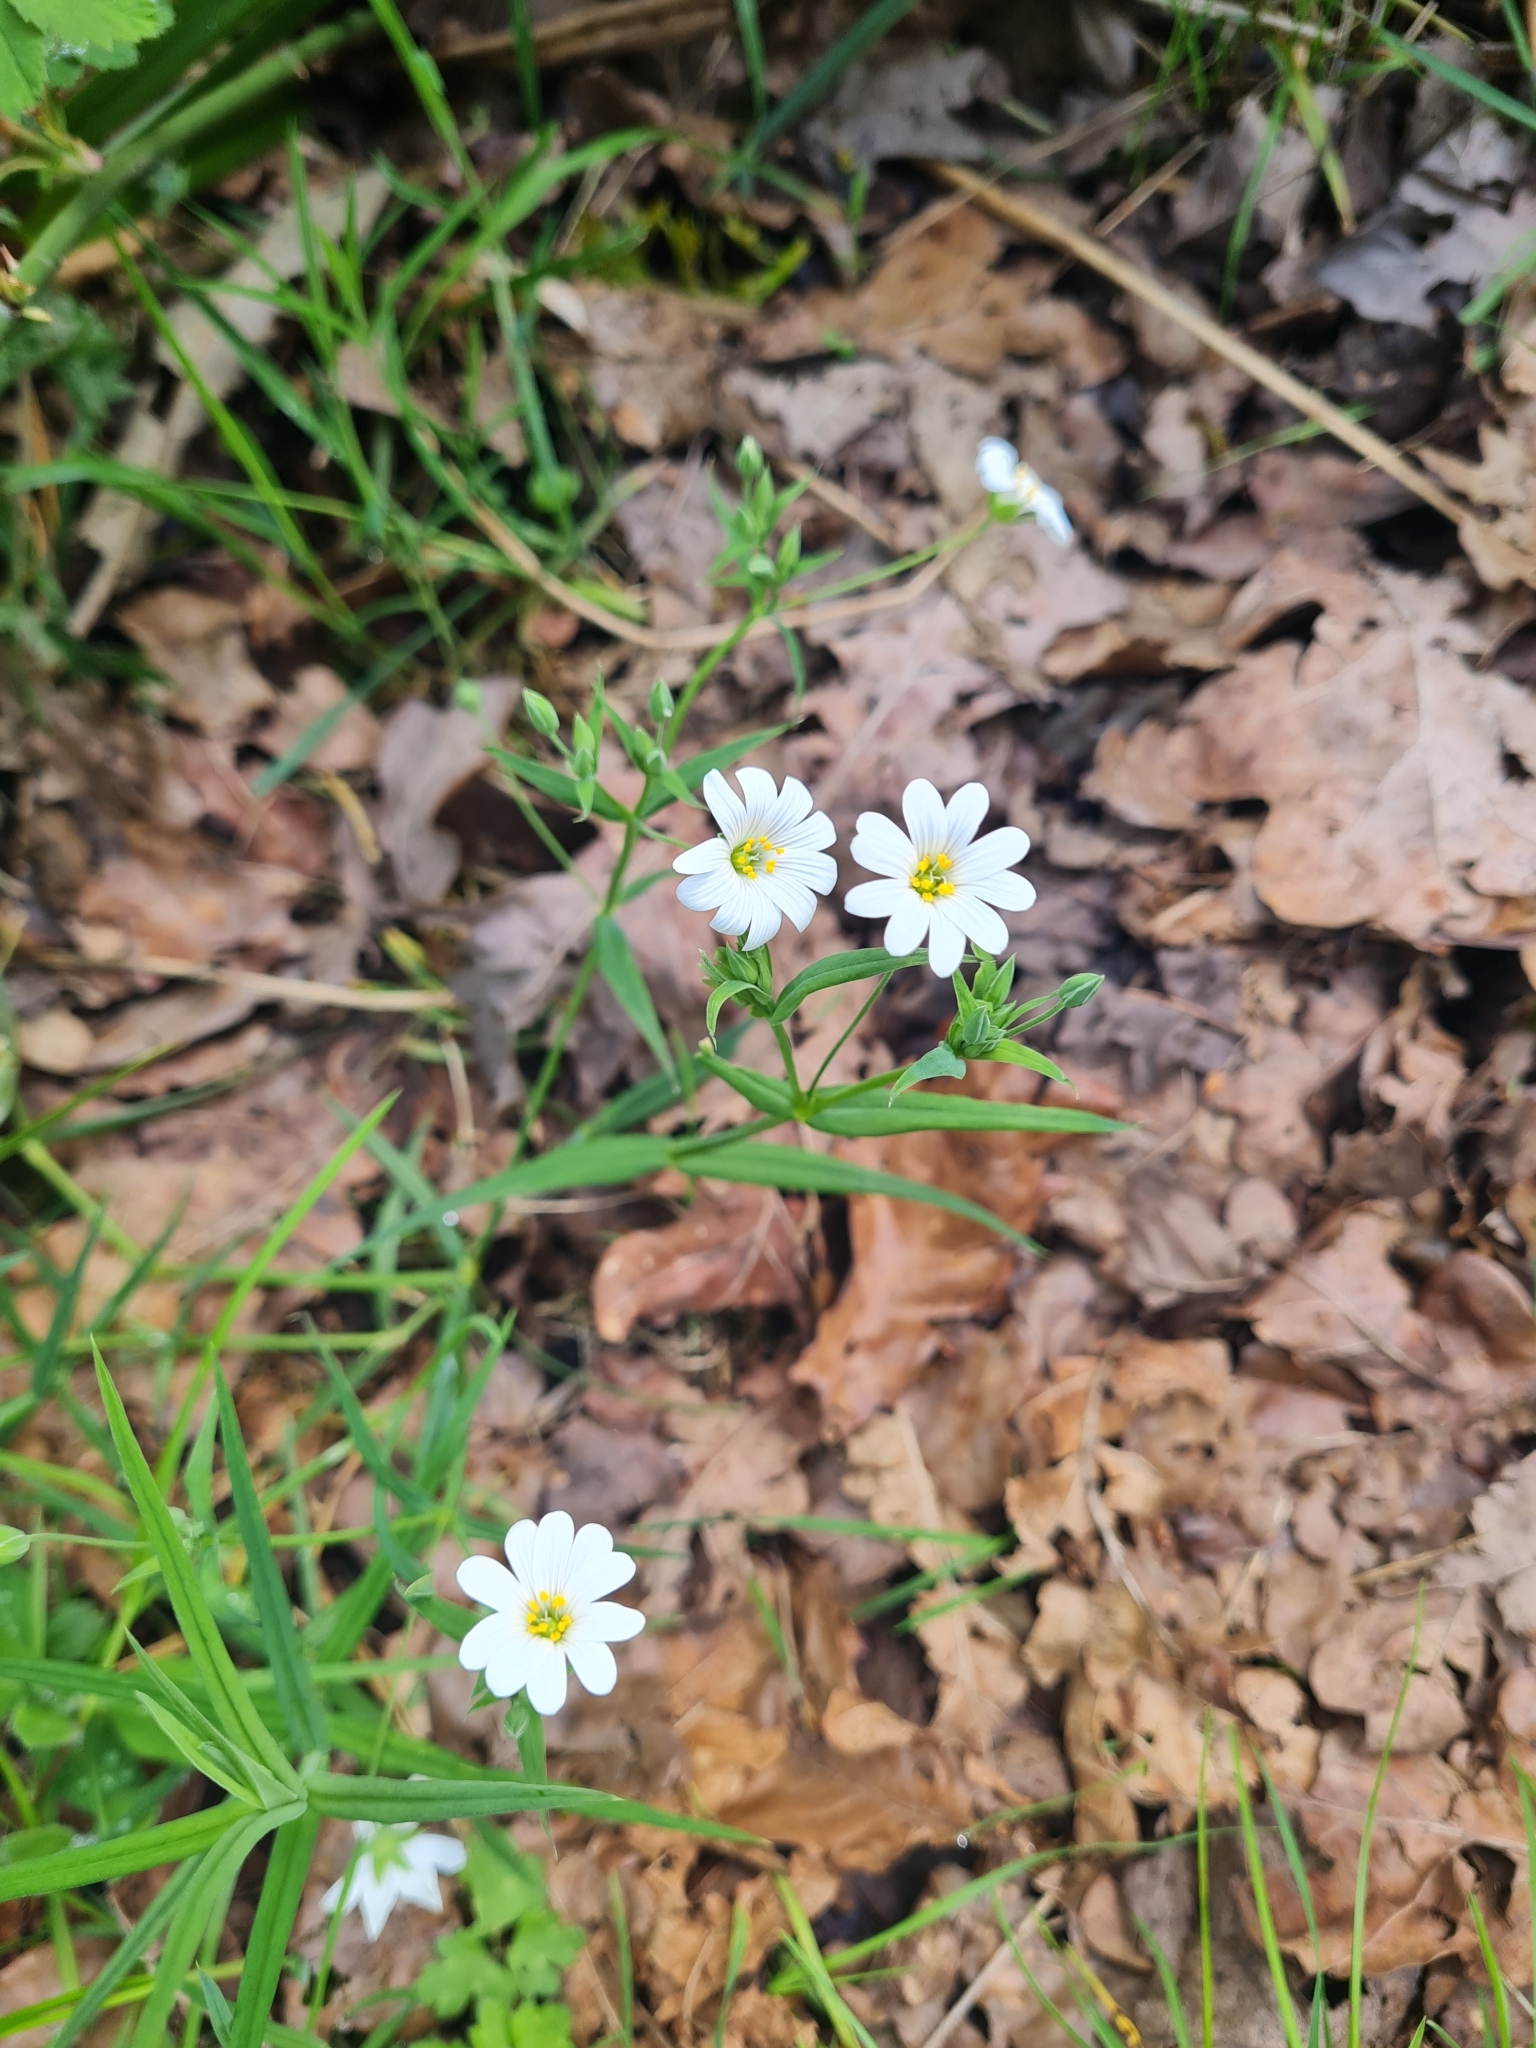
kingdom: Plantae
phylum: Tracheophyta
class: Magnoliopsida
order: Caryophyllales
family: Caryophyllaceae
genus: Rabelera
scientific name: Rabelera holostea
